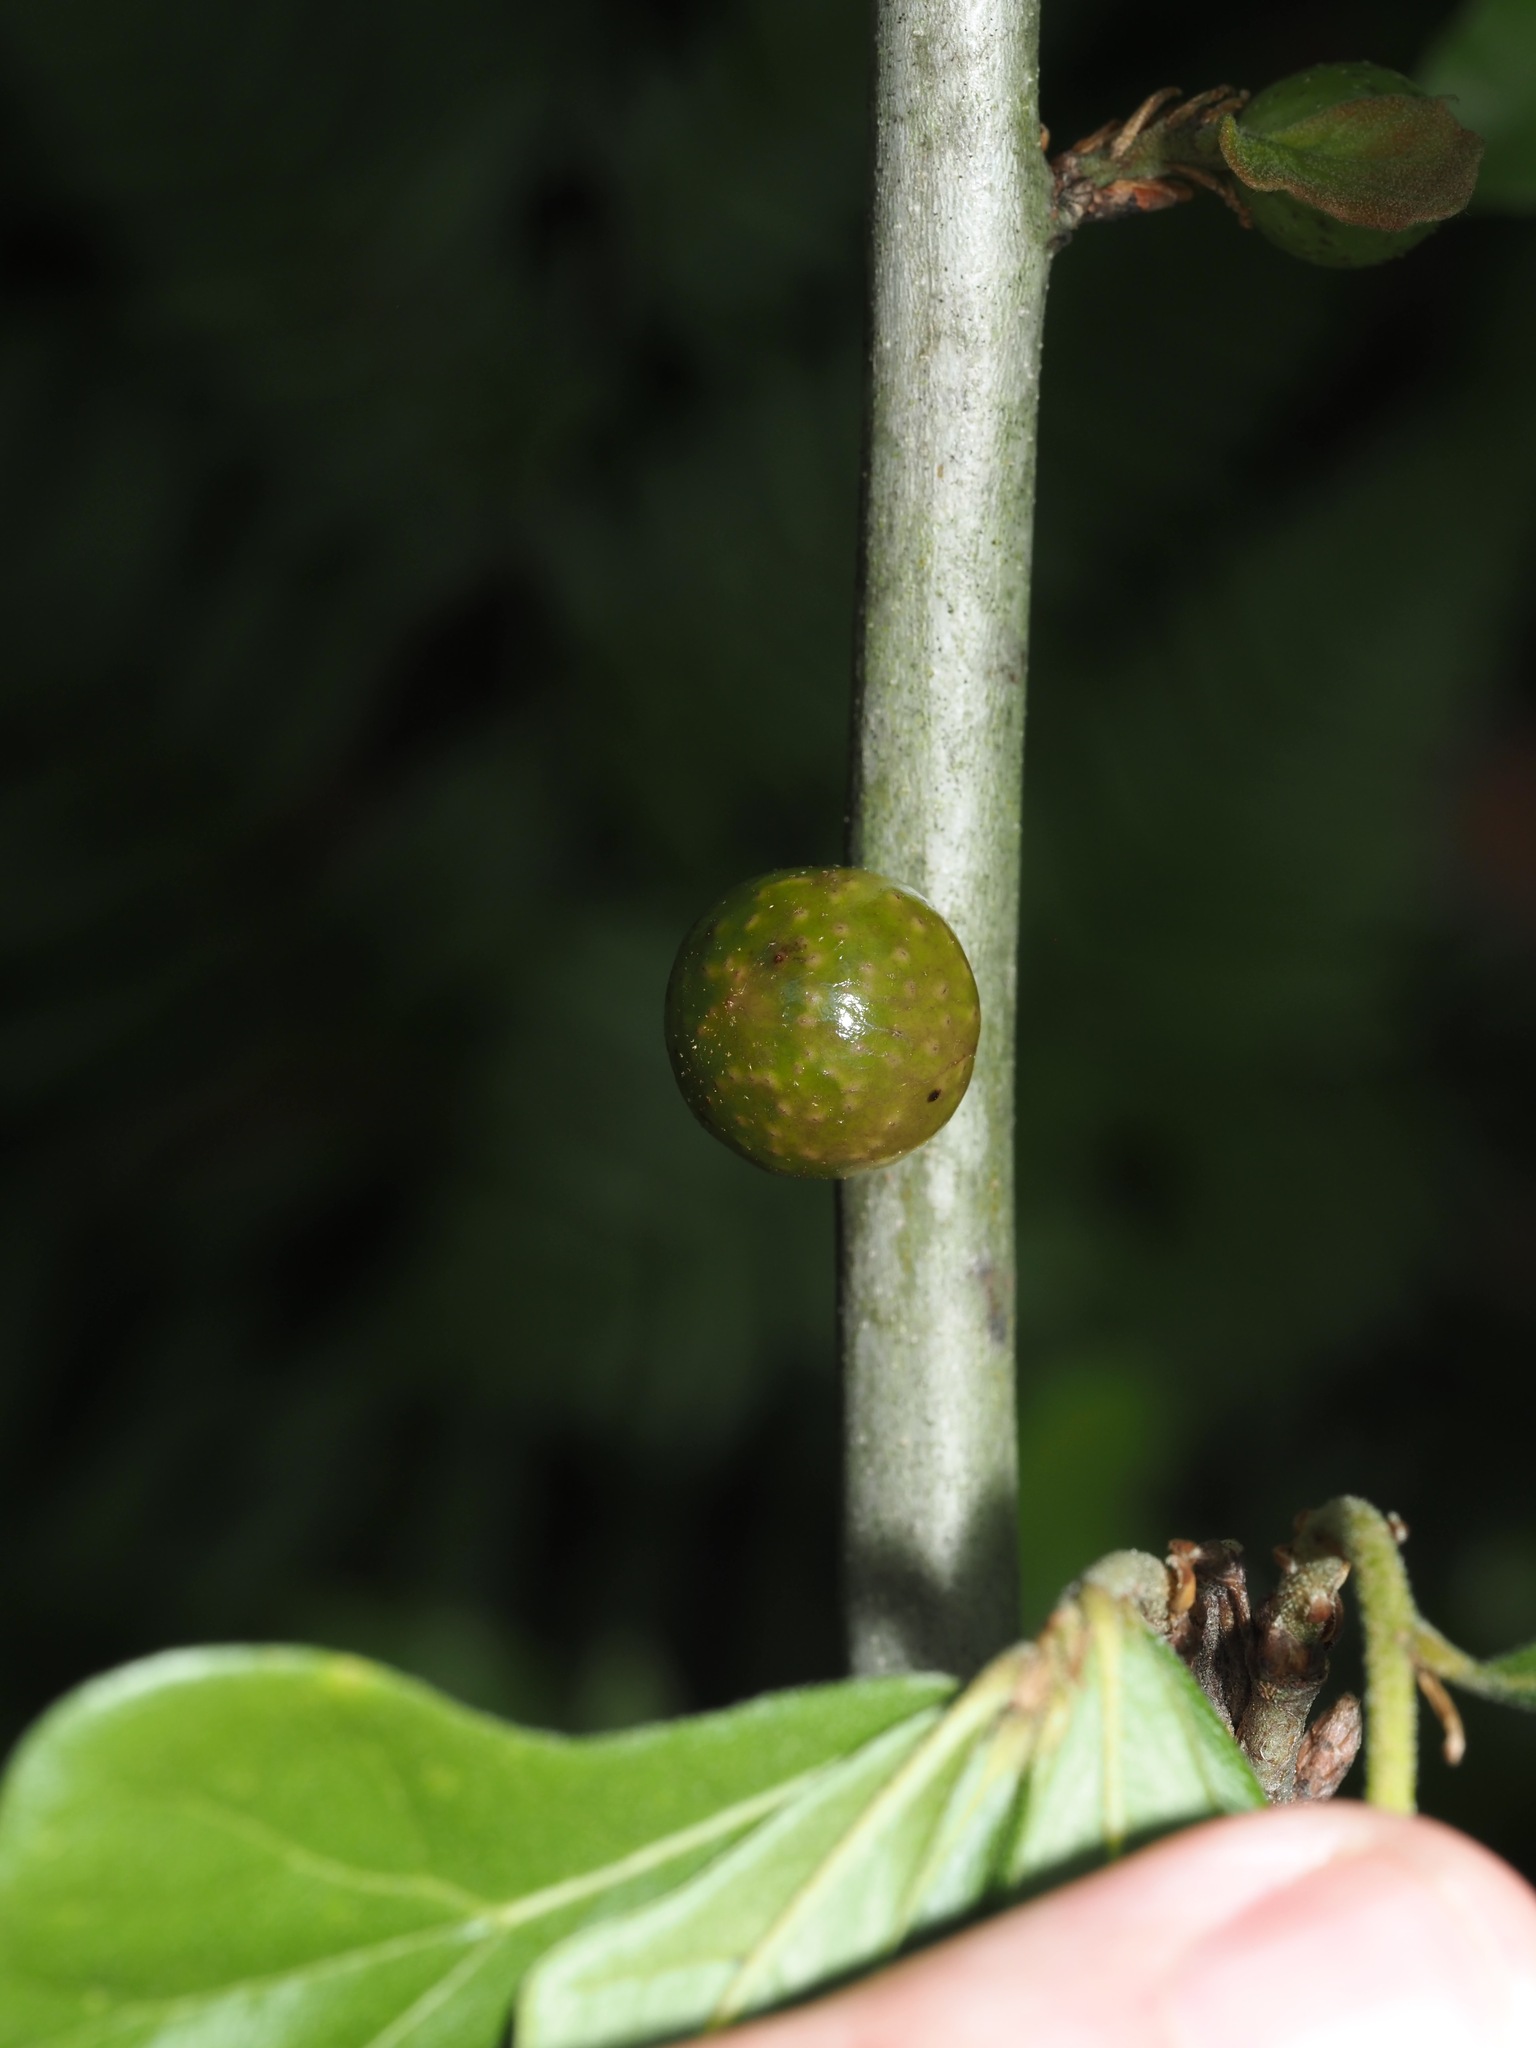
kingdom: Animalia
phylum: Arthropoda
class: Insecta
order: Hymenoptera
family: Cynipidae
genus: Amphibolips
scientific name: Amphibolips
